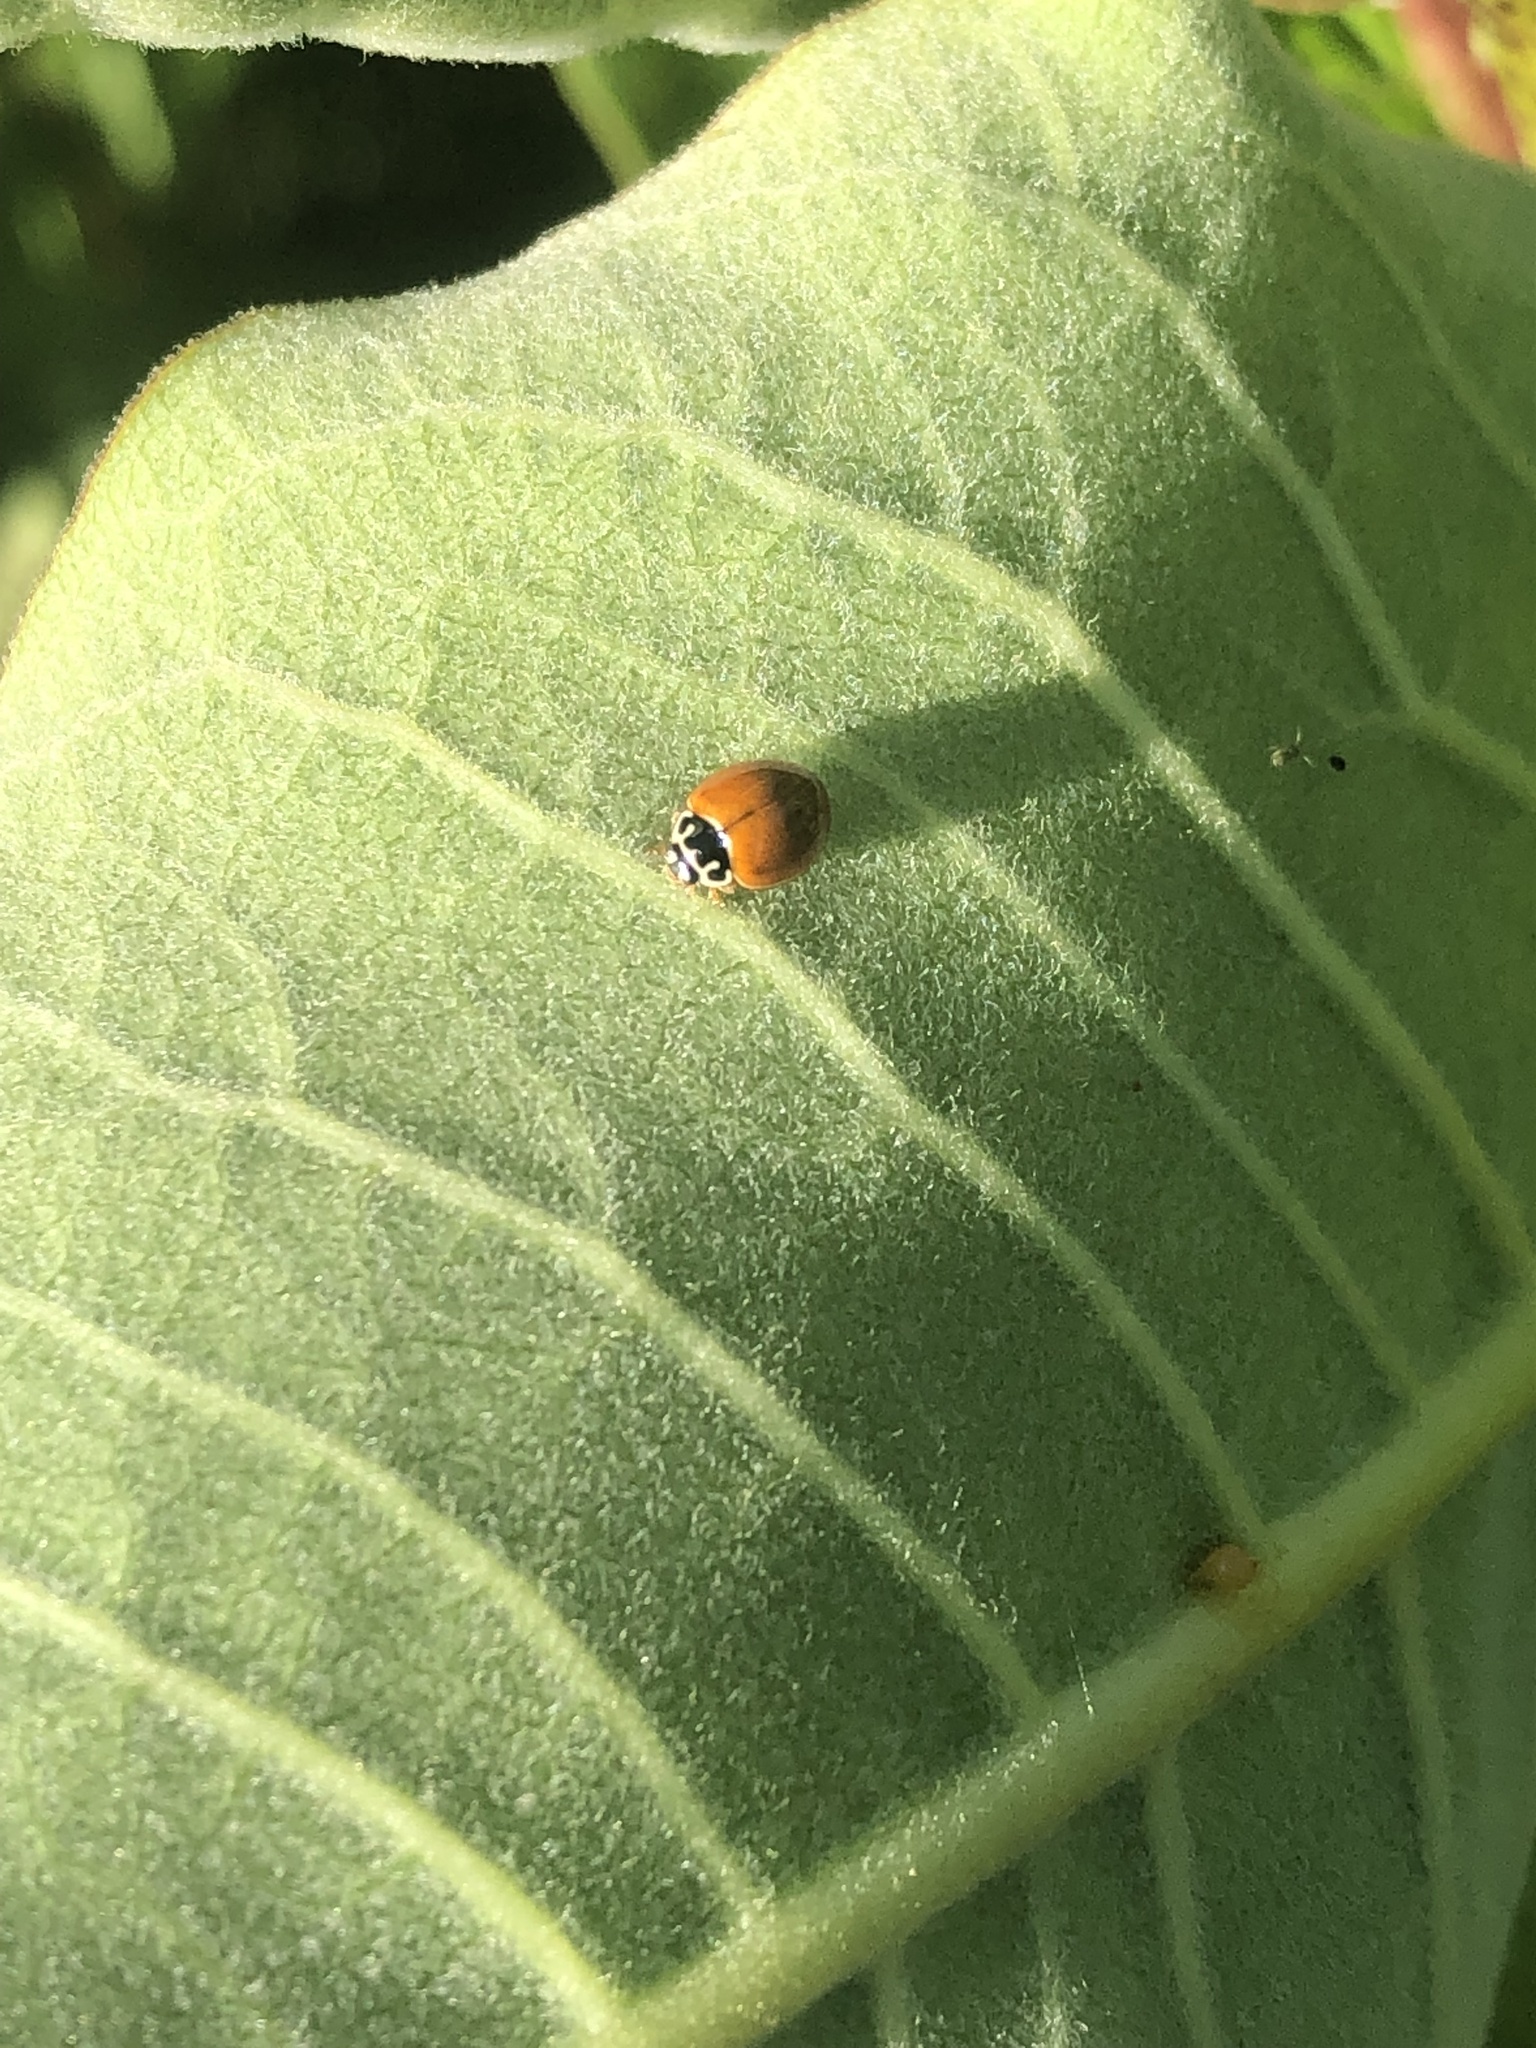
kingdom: Animalia
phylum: Arthropoda
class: Insecta
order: Coleoptera
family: Coccinellidae
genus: Cycloneda
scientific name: Cycloneda munda
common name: Polished lady beetle
